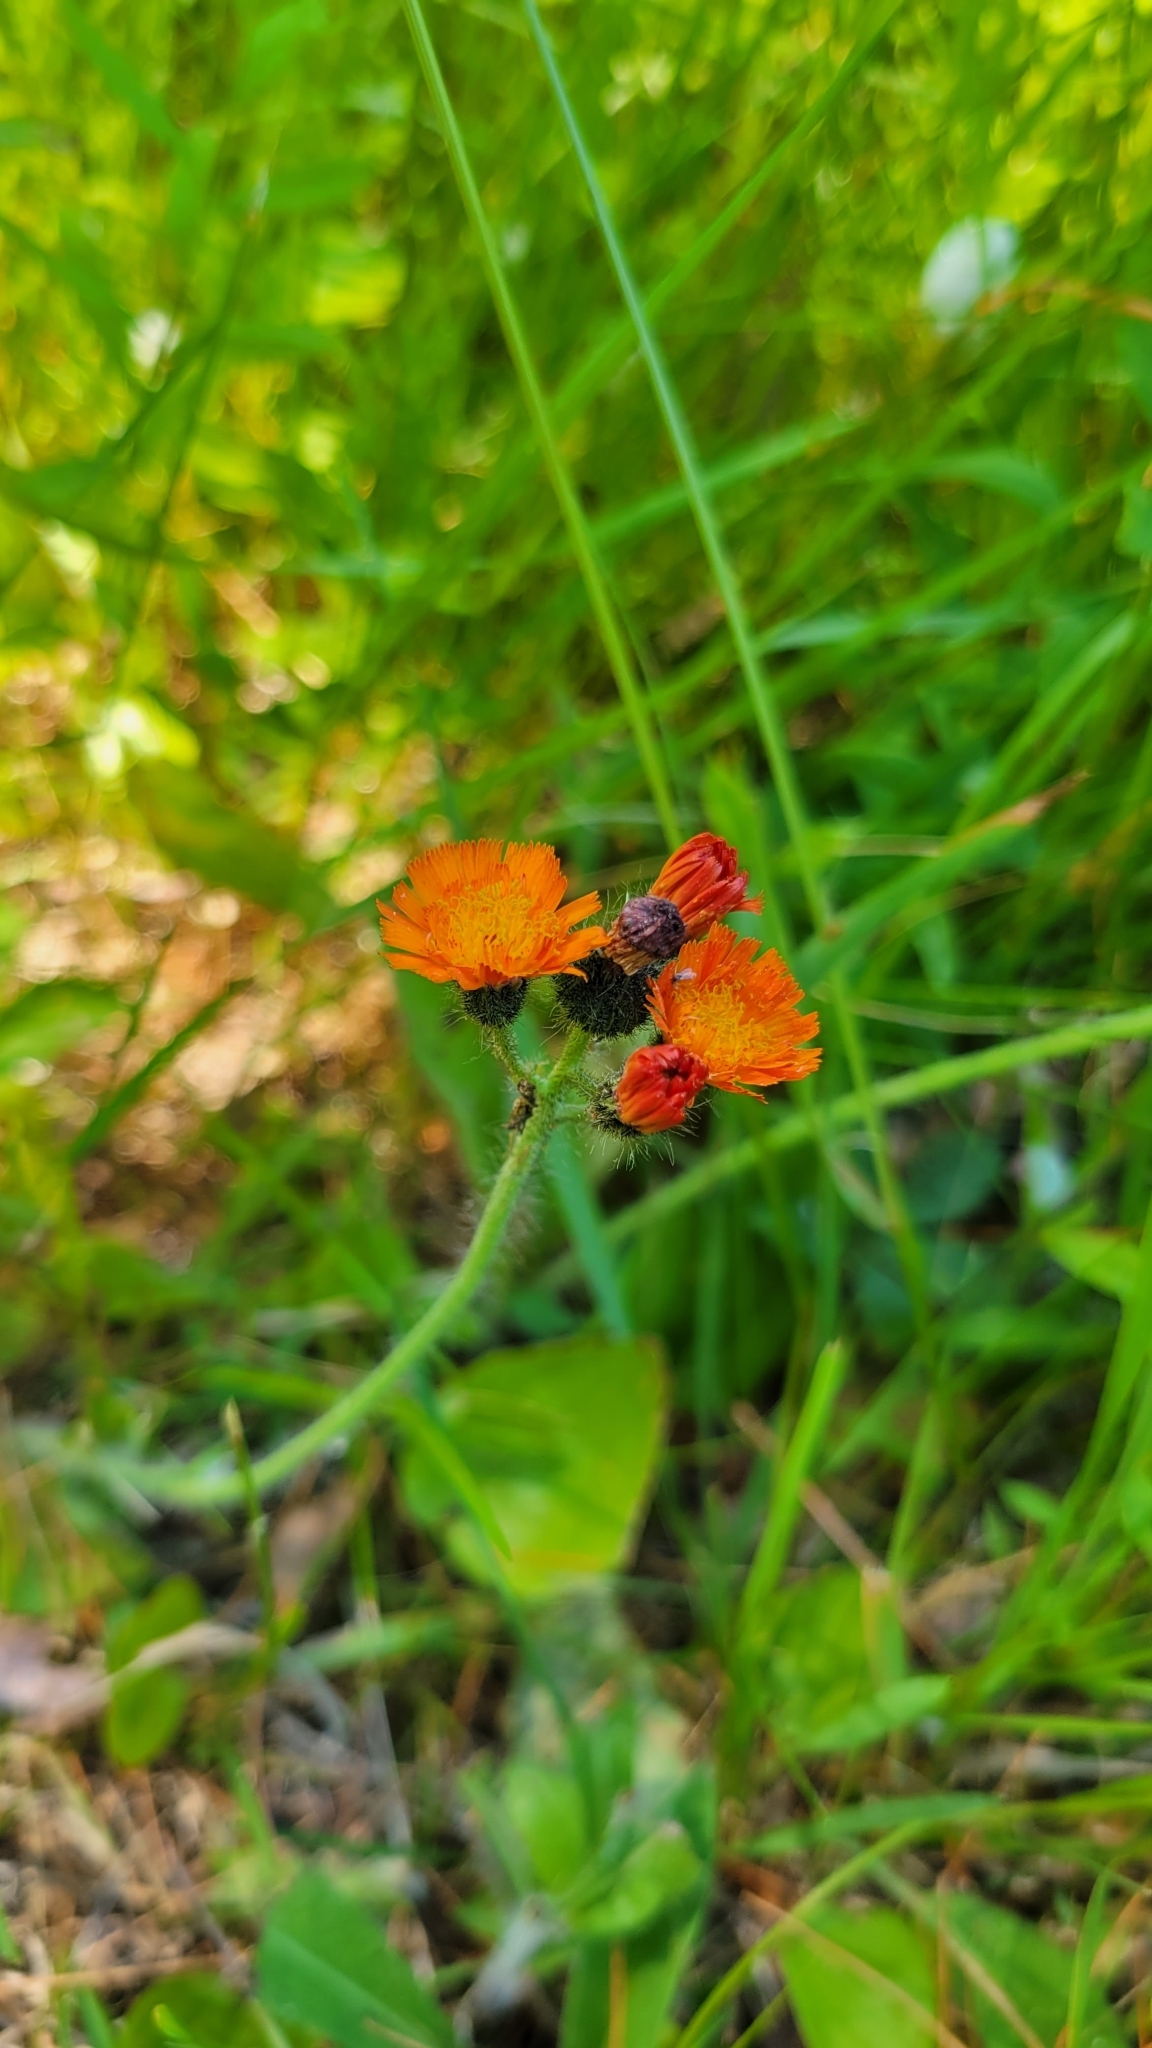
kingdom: Plantae
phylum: Tracheophyta
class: Magnoliopsida
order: Asterales
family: Asteraceae
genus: Pilosella
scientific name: Pilosella aurantiaca
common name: Fox-and-cubs
